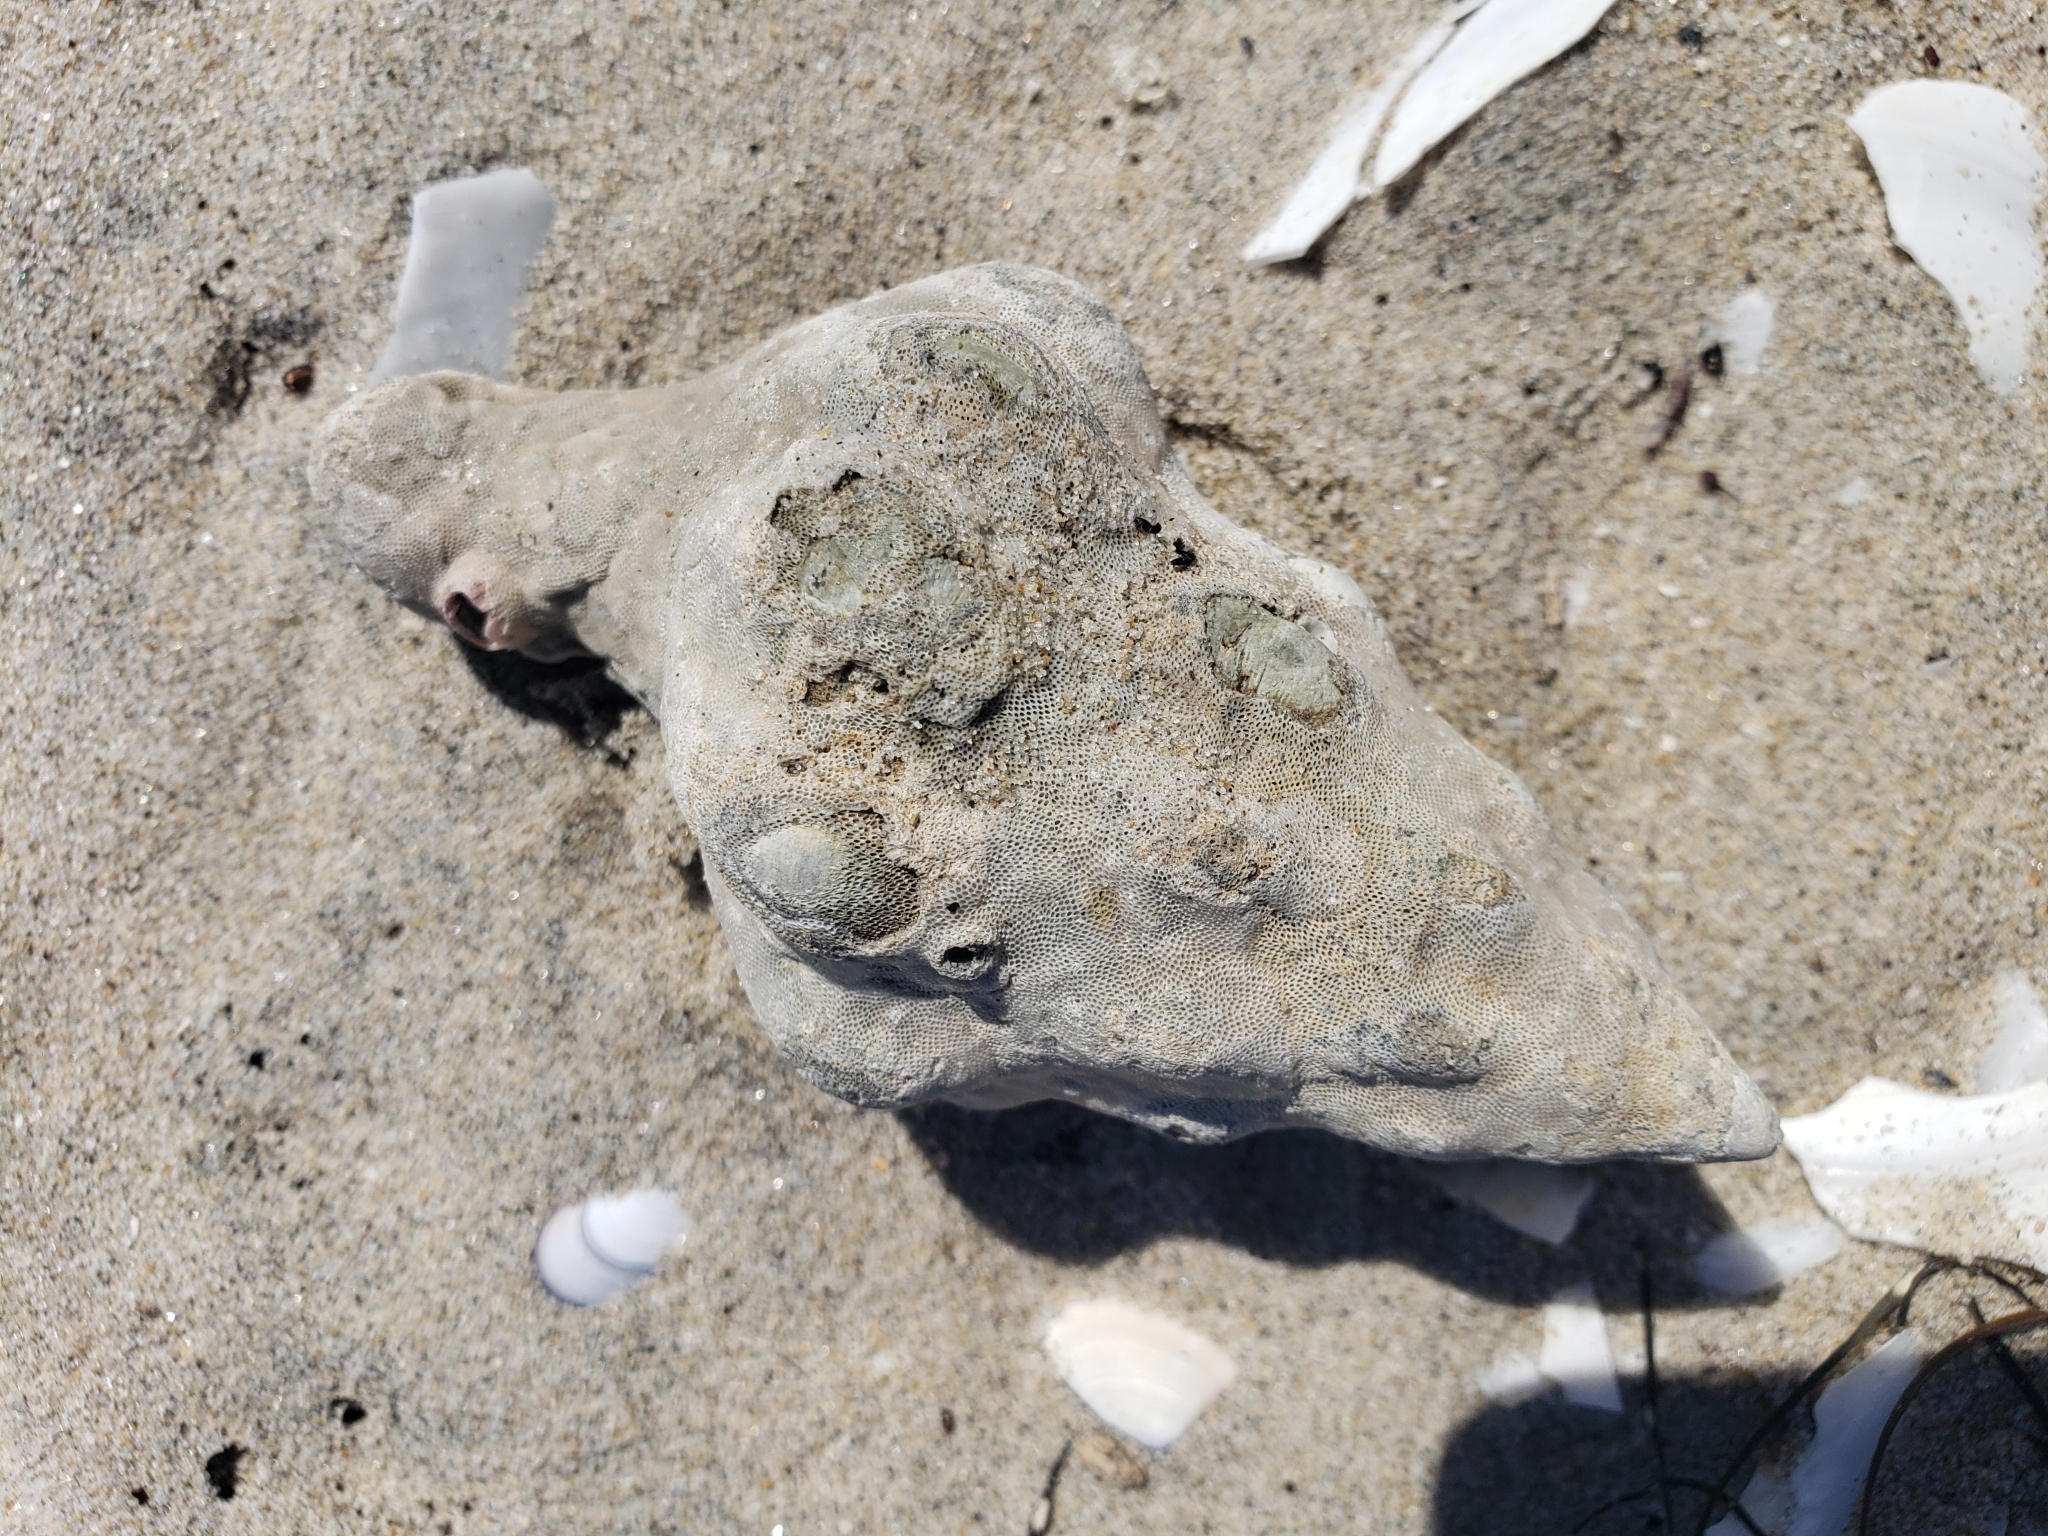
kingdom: Animalia
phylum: Mollusca
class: Gastropoda
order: Neogastropoda
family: Austrosiphonidae
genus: Kelletia
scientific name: Kelletia kelletii
